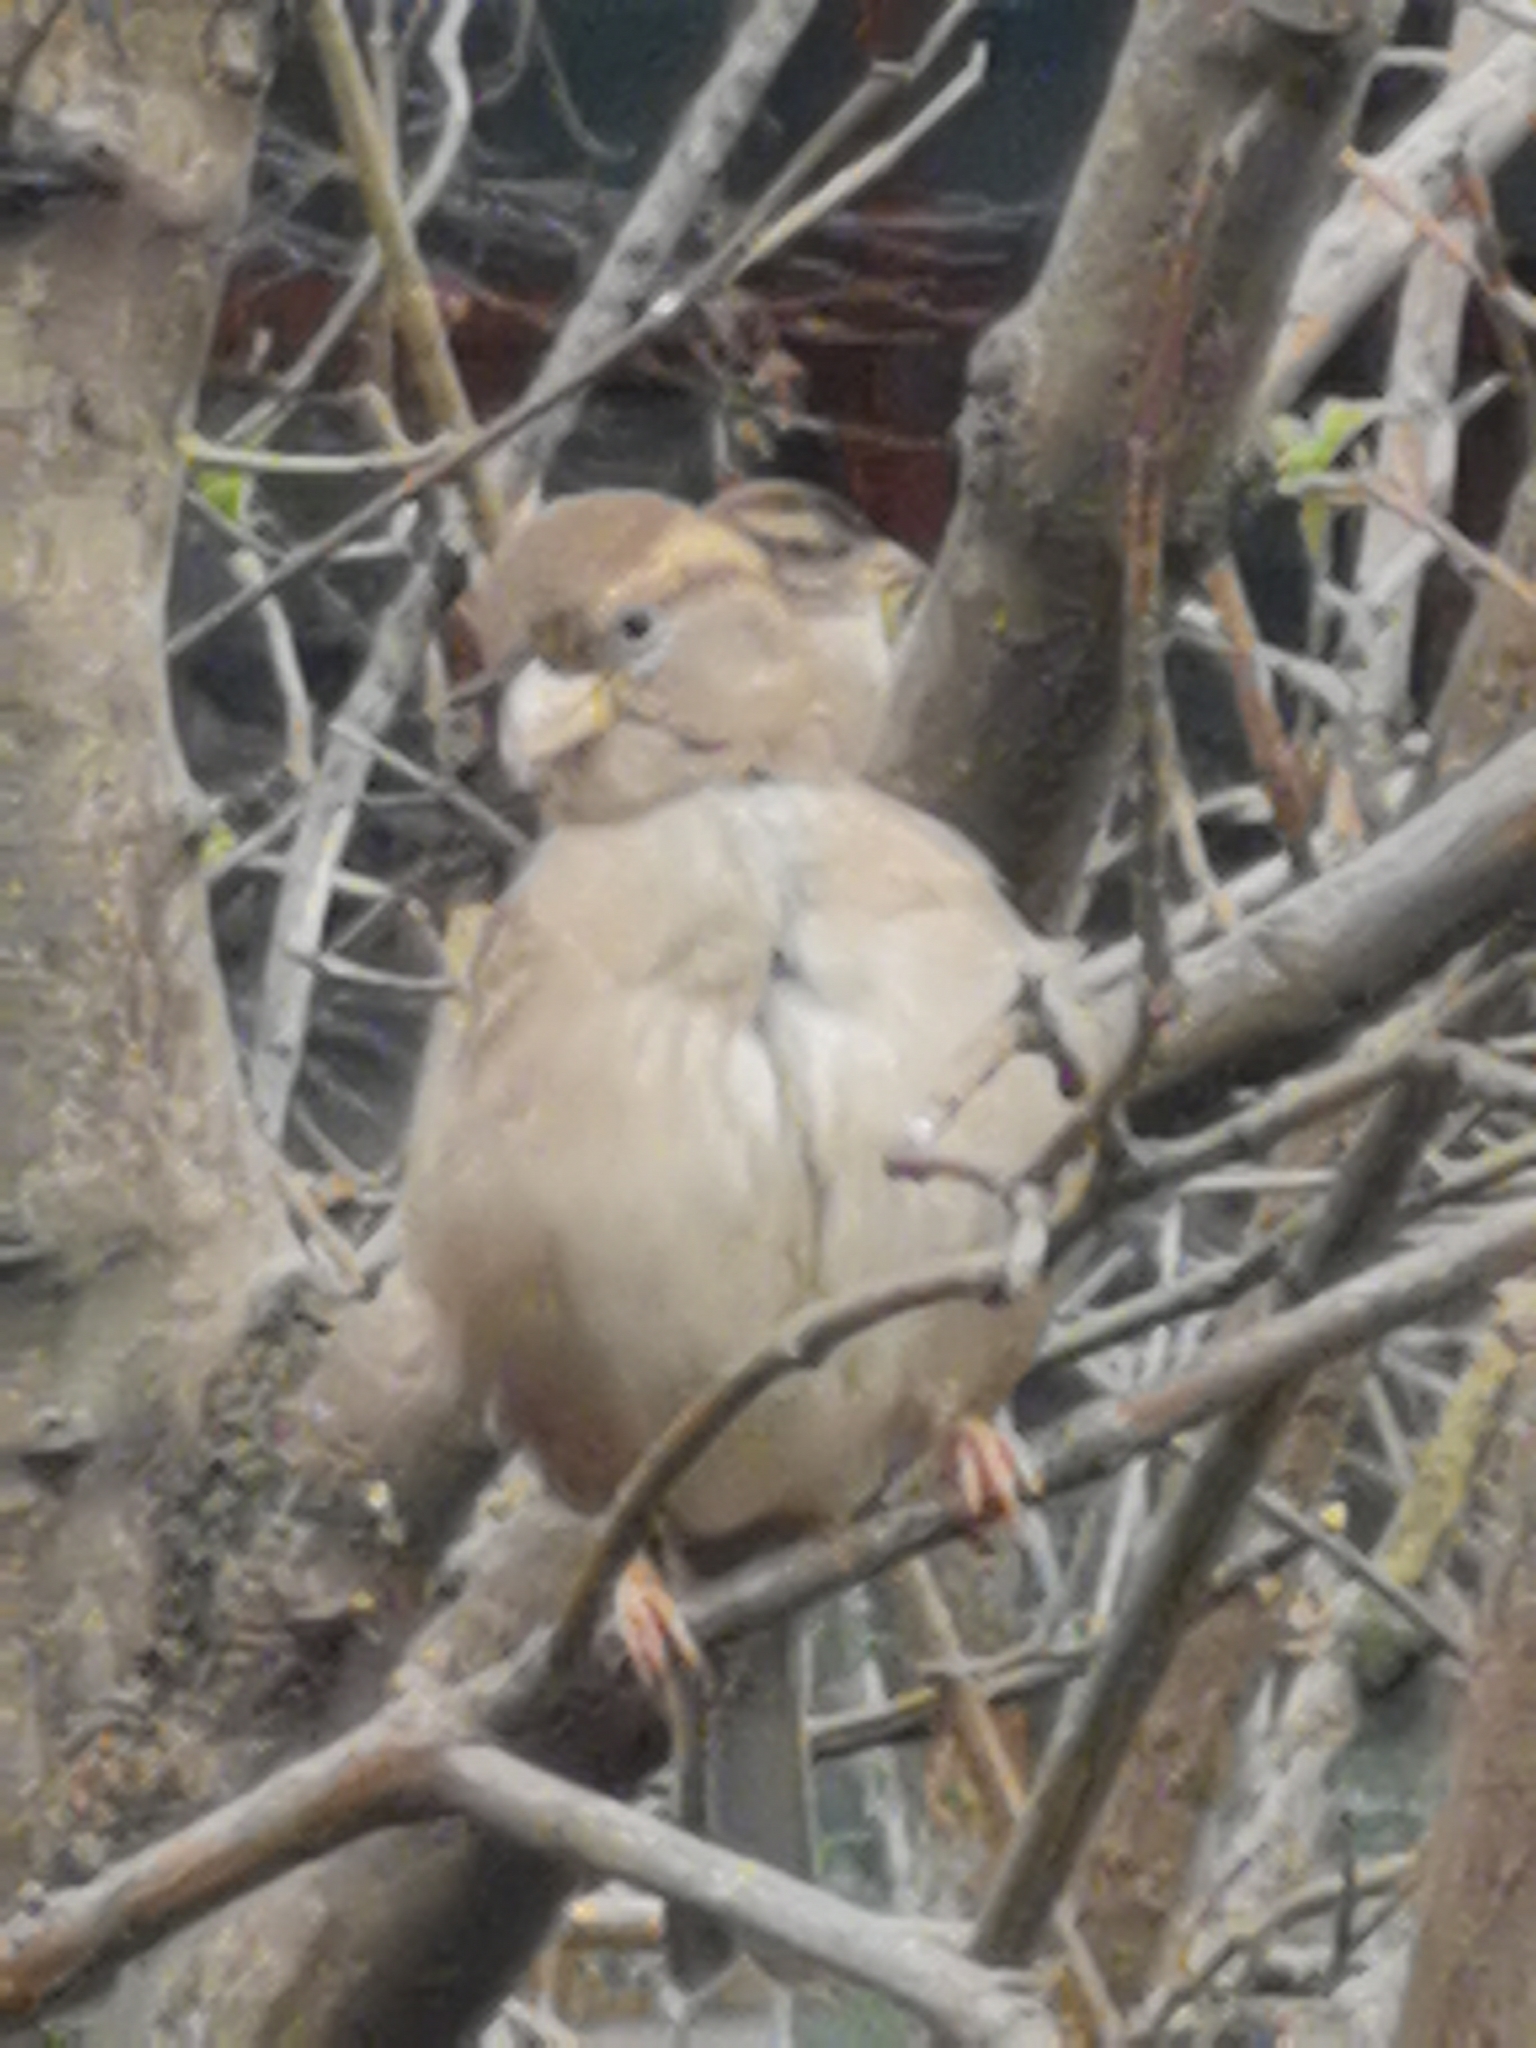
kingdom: Animalia
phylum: Chordata
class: Aves
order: Passeriformes
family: Passeridae
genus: Passer
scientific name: Passer domesticus
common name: House sparrow
